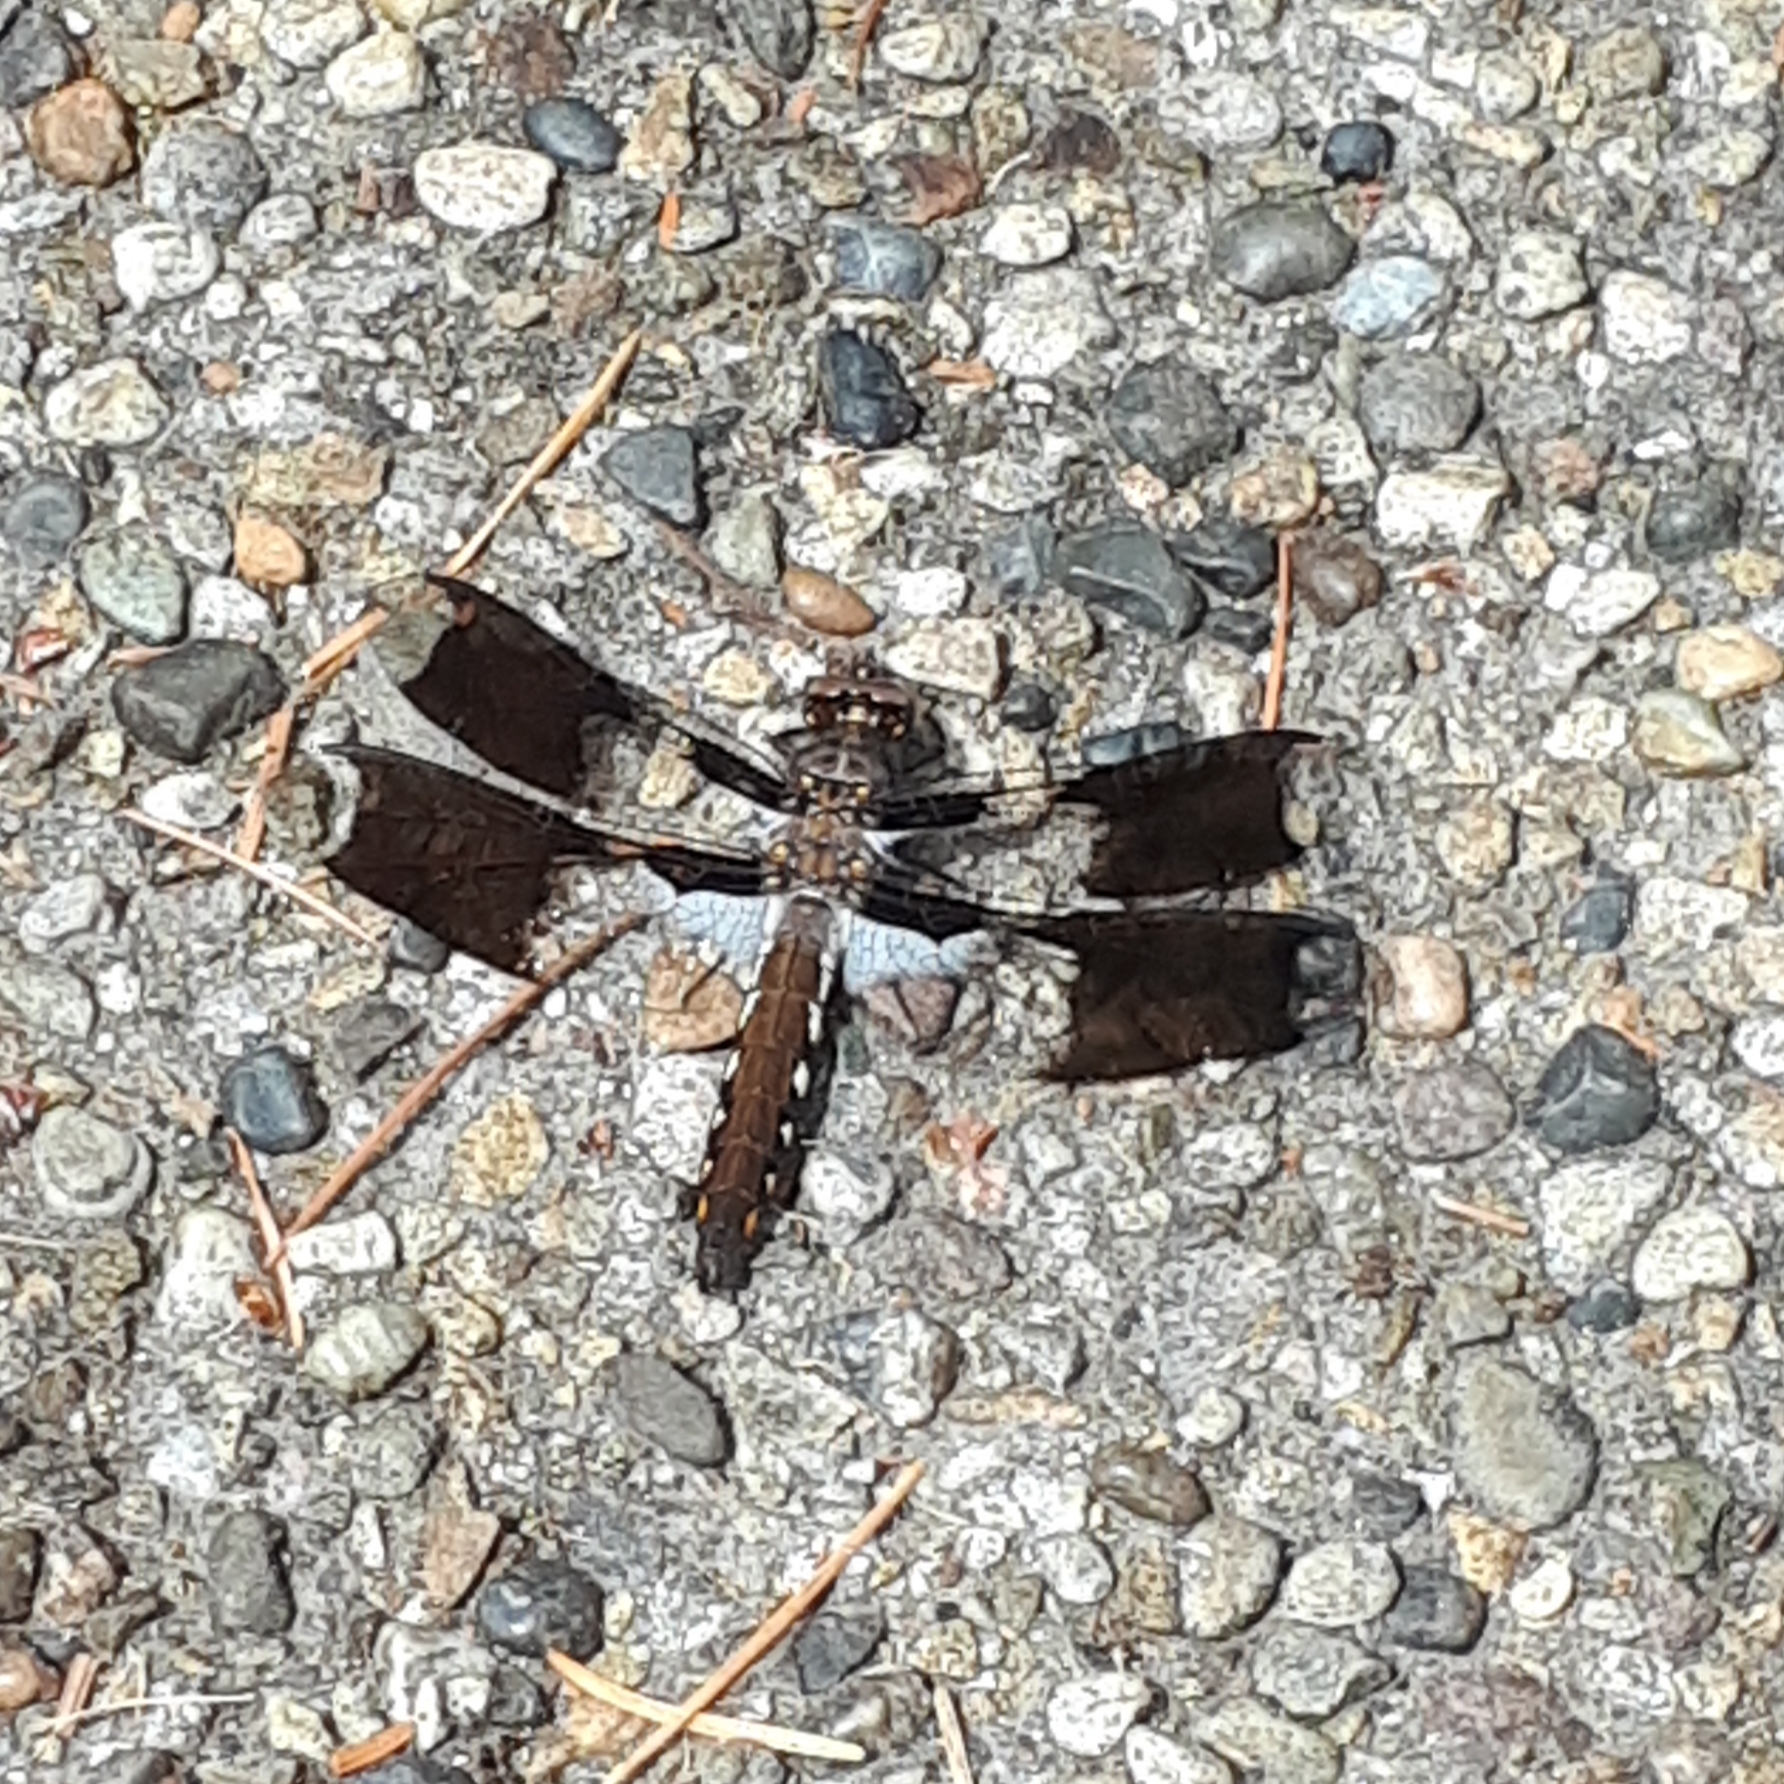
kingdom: Animalia
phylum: Arthropoda
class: Insecta
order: Odonata
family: Libellulidae
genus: Plathemis
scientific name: Plathemis lydia
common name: Common whitetail
